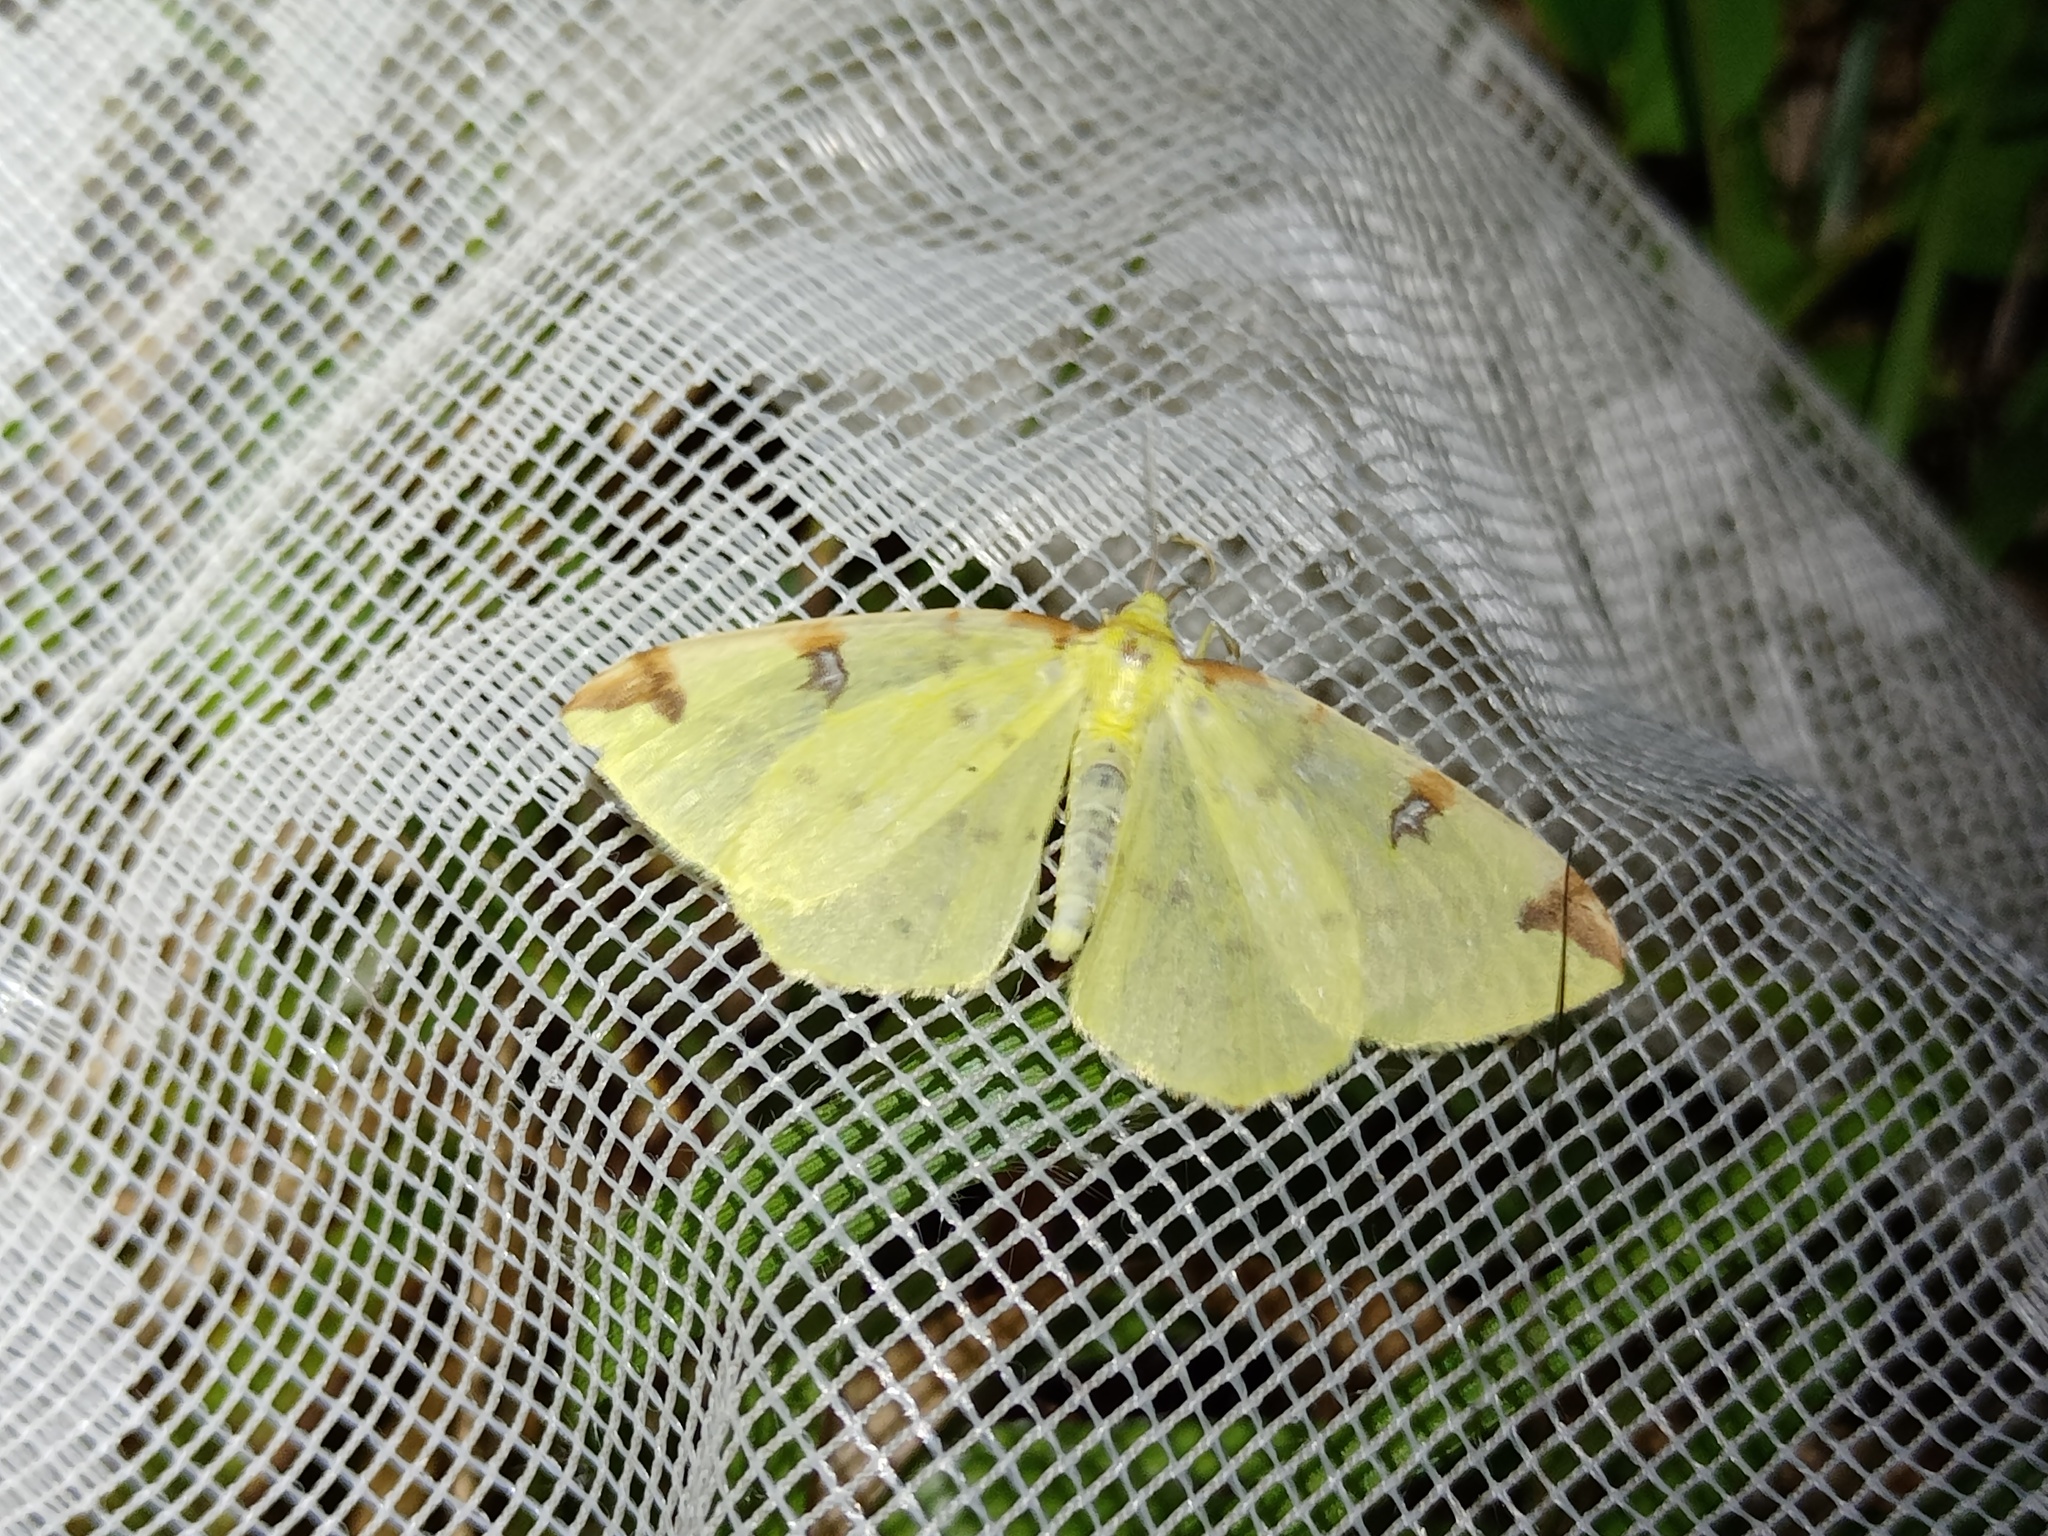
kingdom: Animalia
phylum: Arthropoda
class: Insecta
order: Lepidoptera
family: Geometridae
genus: Opisthograptis
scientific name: Opisthograptis luteolata
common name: Brimstone moth
